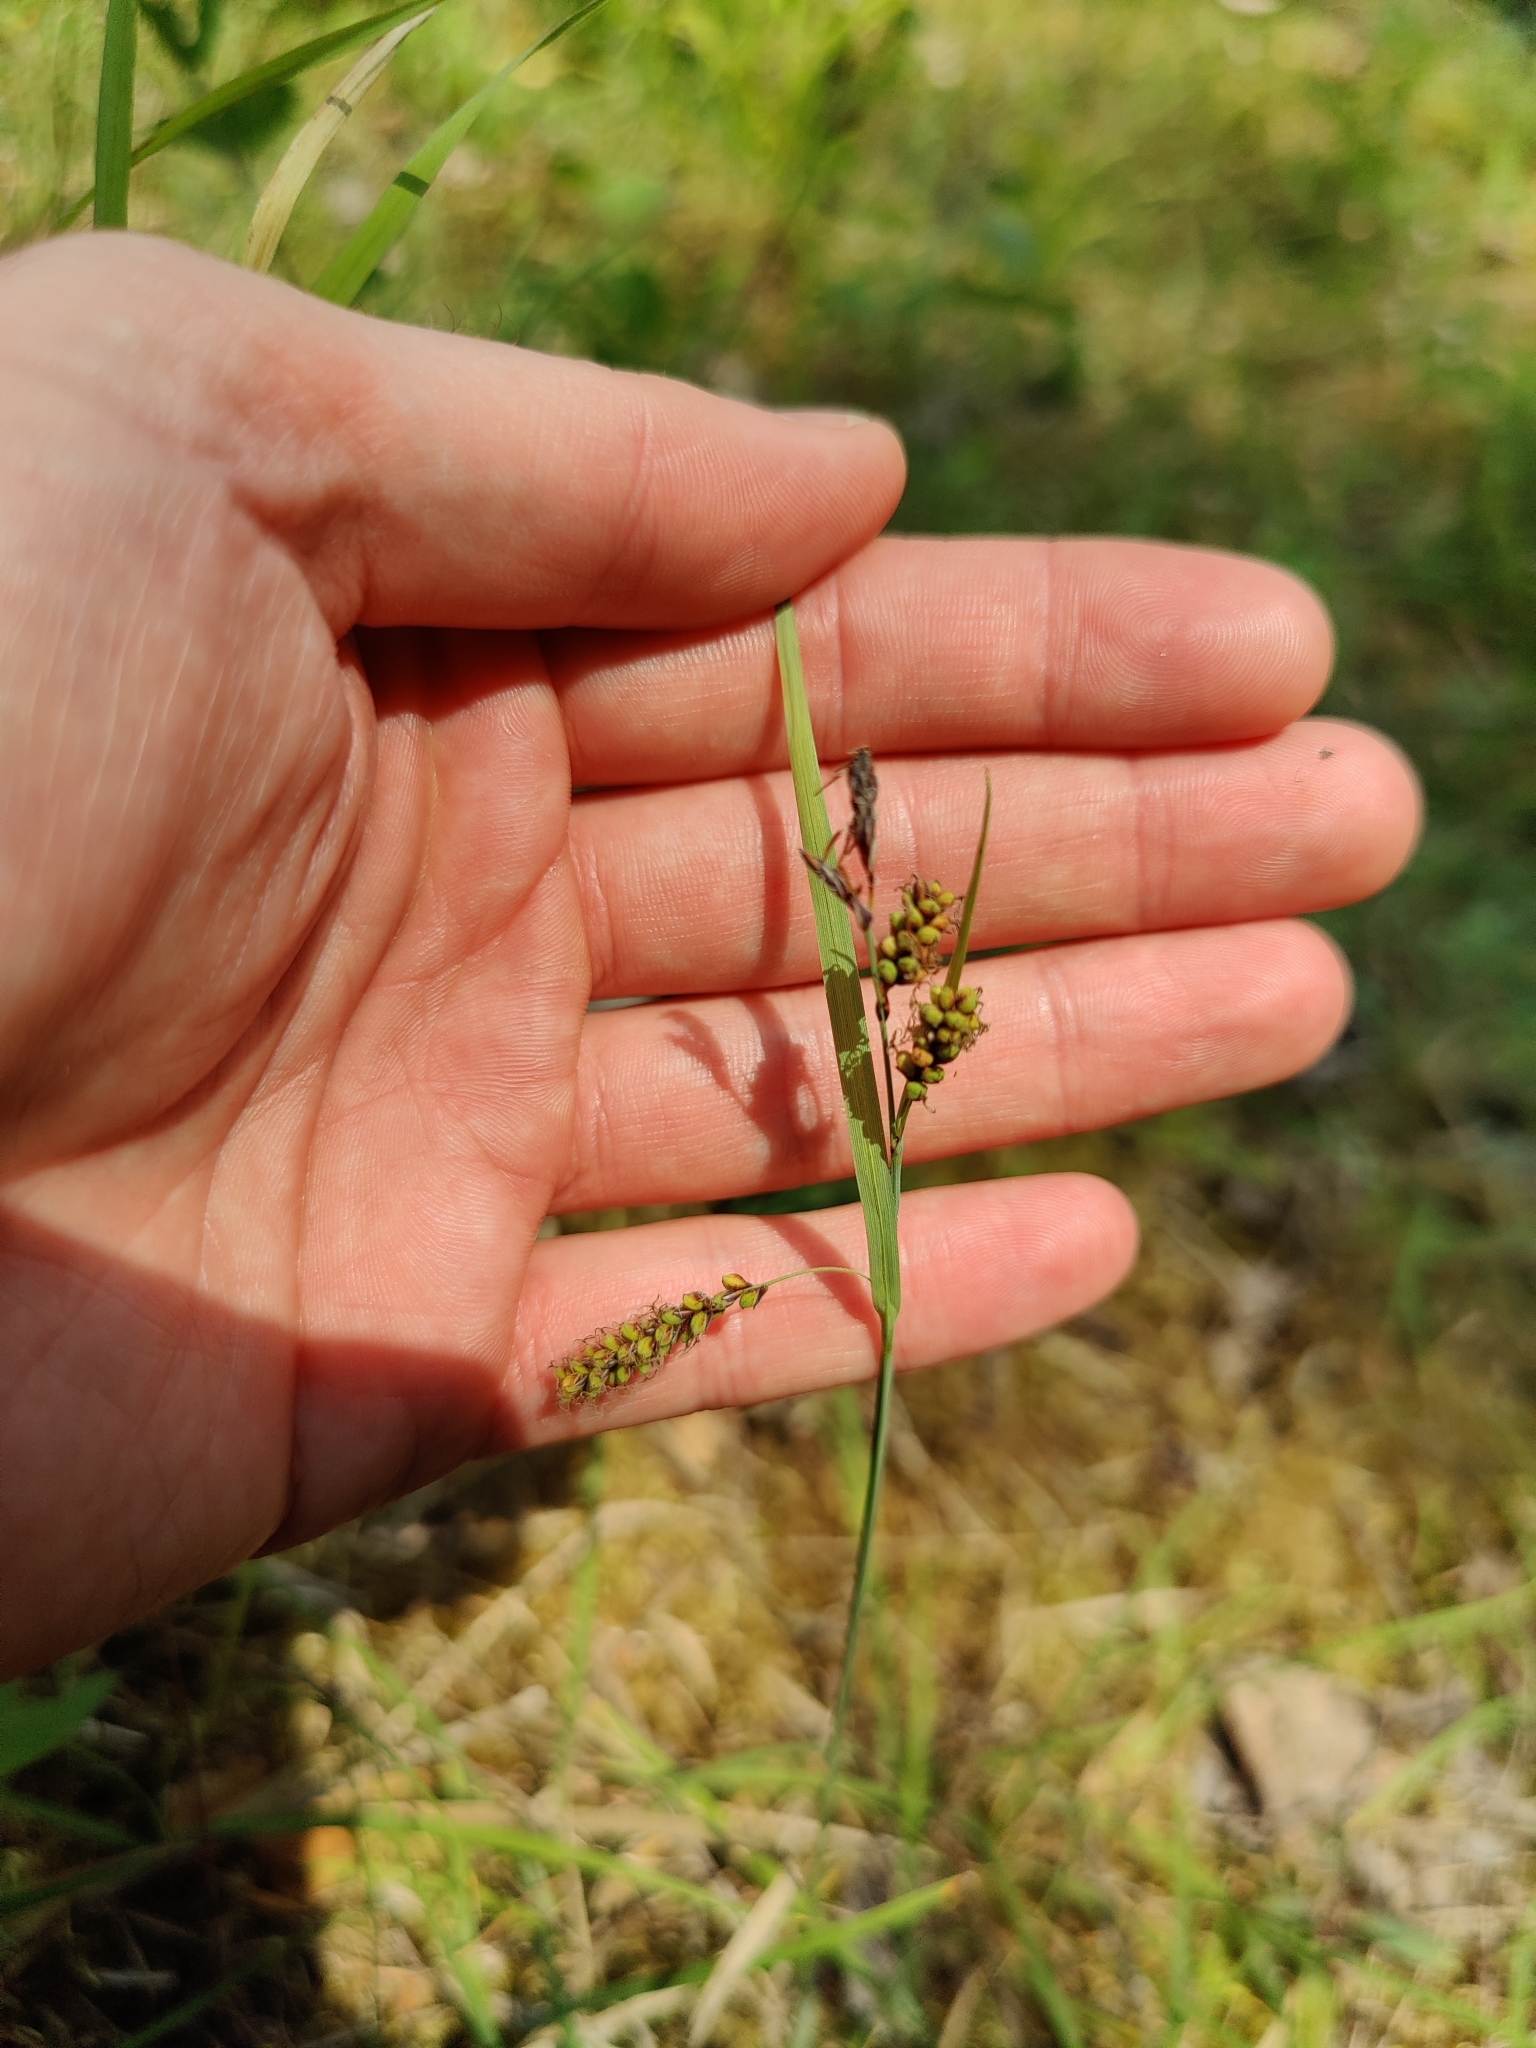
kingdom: Plantae
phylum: Tracheophyta
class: Liliopsida
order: Poales
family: Cyperaceae
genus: Carex
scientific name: Carex flacca
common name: Glaucous sedge
